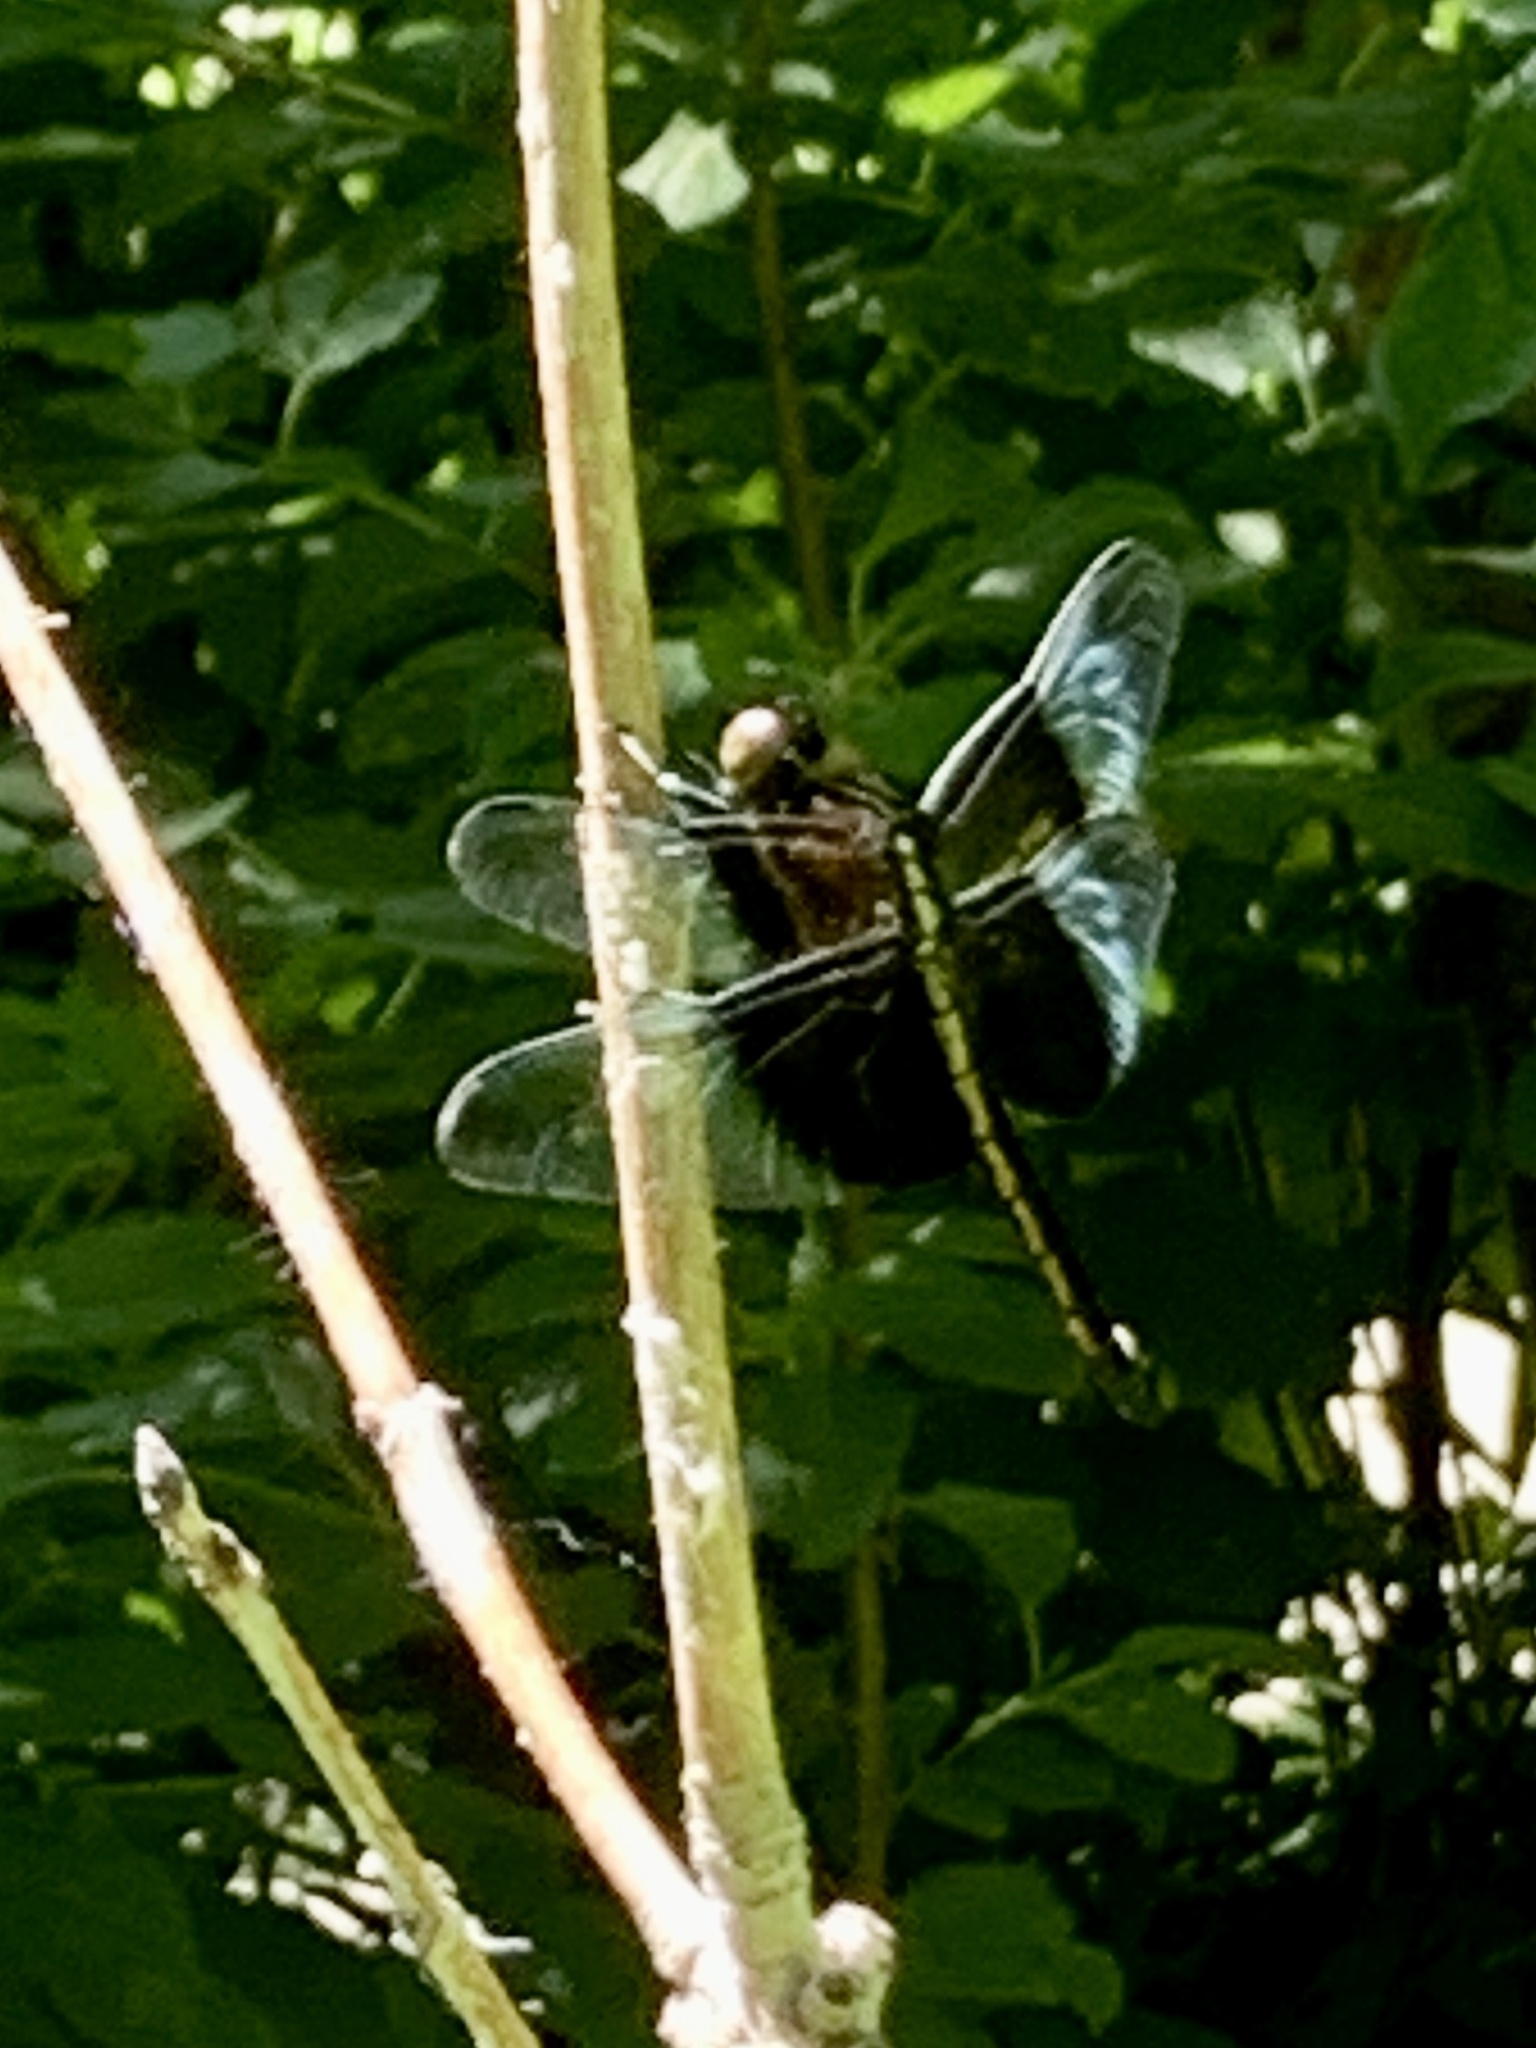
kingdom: Animalia
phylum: Arthropoda
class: Insecta
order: Odonata
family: Libellulidae
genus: Libellula
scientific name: Libellula luctuosa
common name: Widow skimmer
